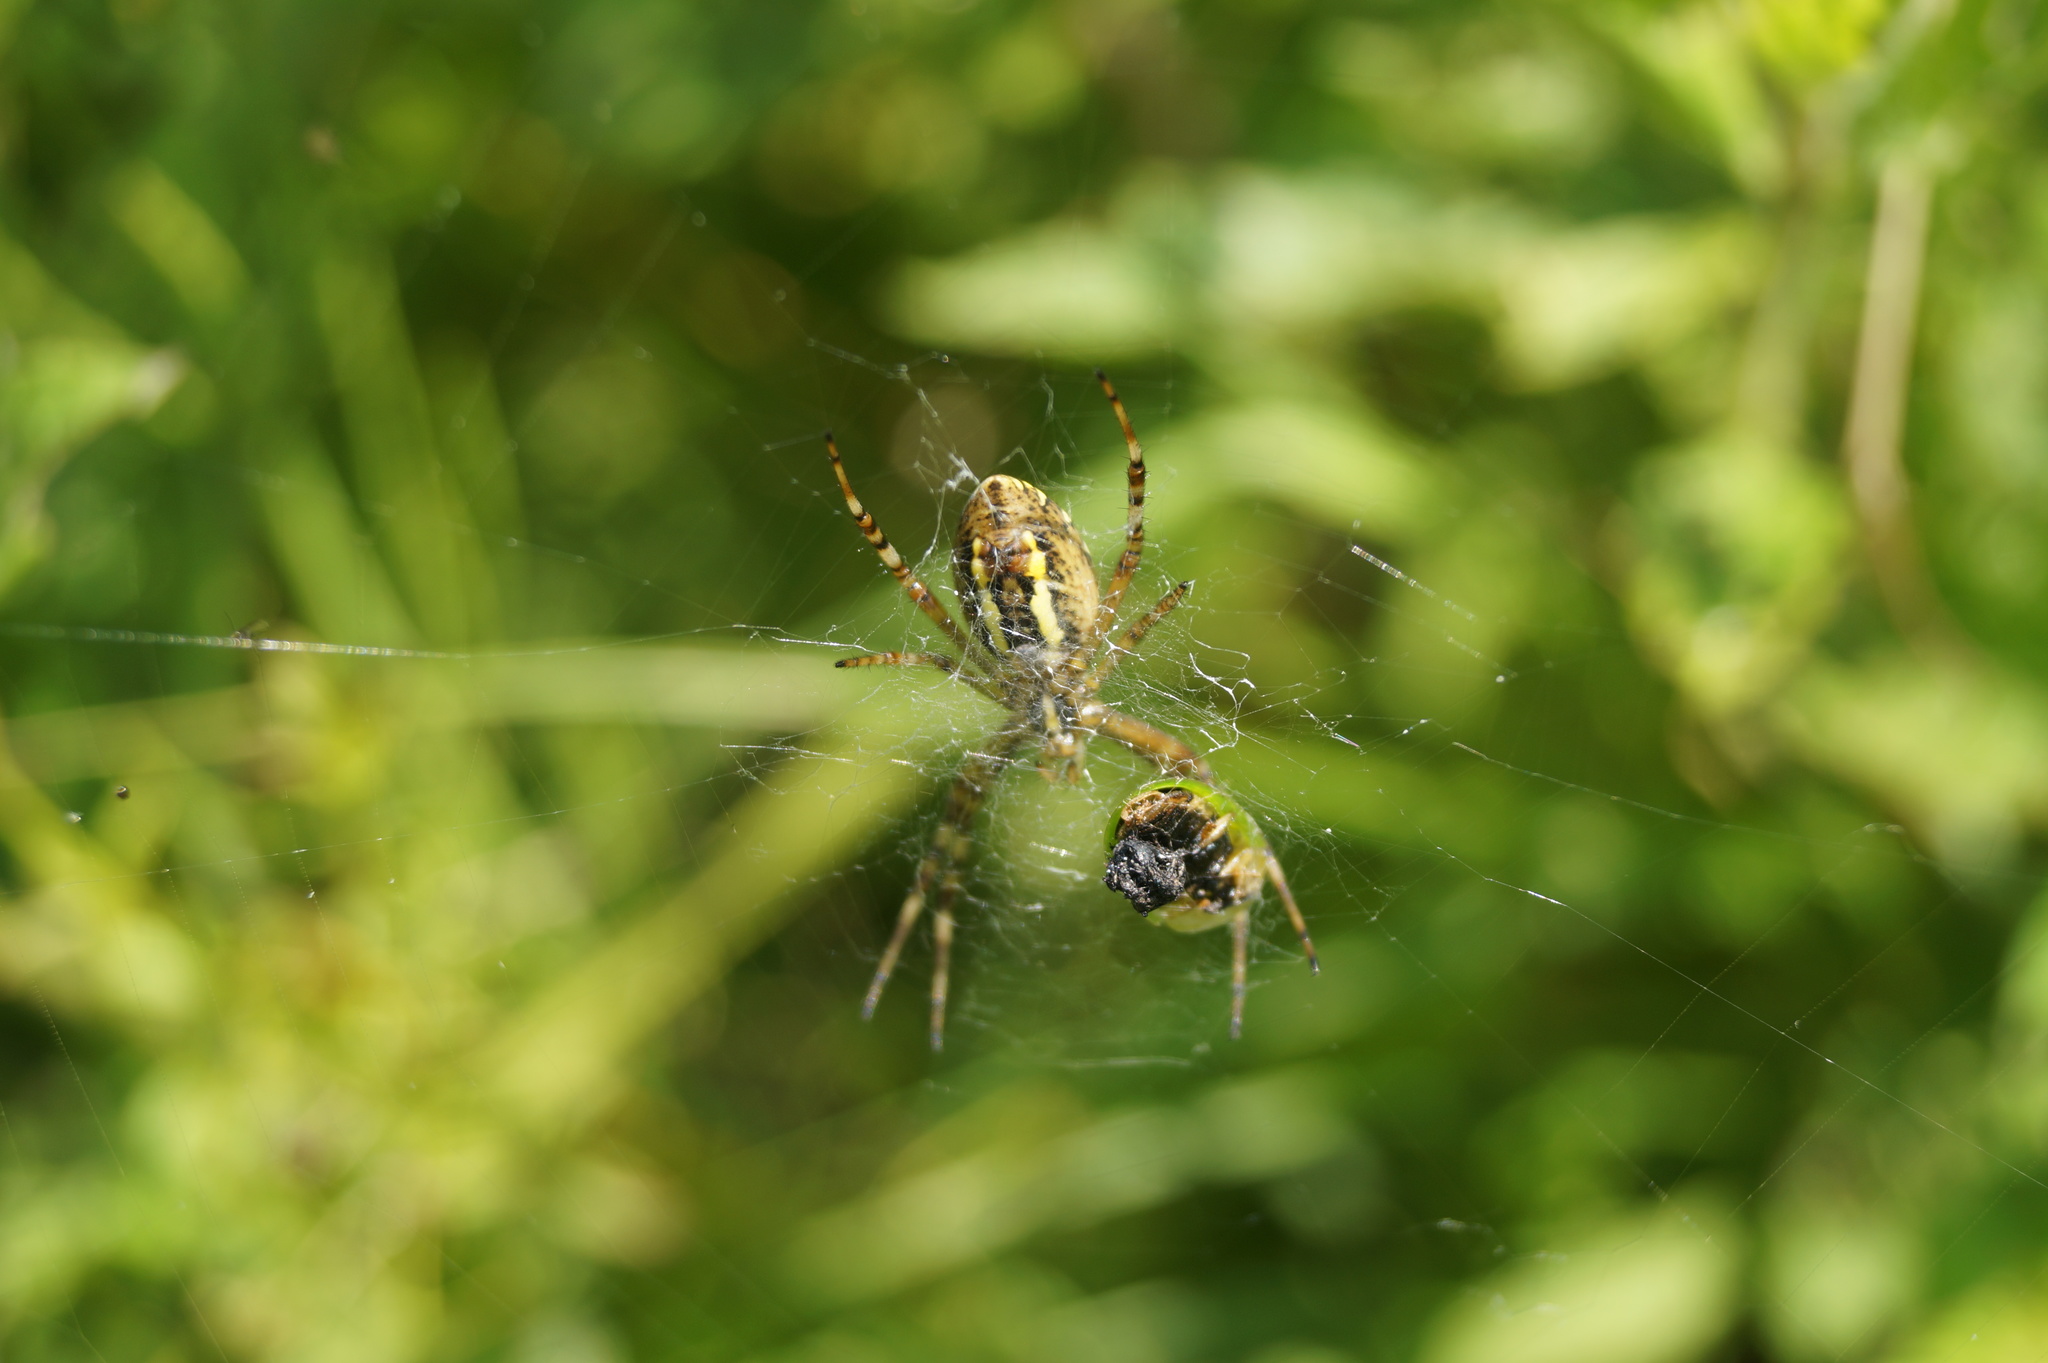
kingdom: Animalia
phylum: Arthropoda
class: Arachnida
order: Araneae
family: Araneidae
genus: Argiope
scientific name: Argiope bruennichi
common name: Wasp spider
